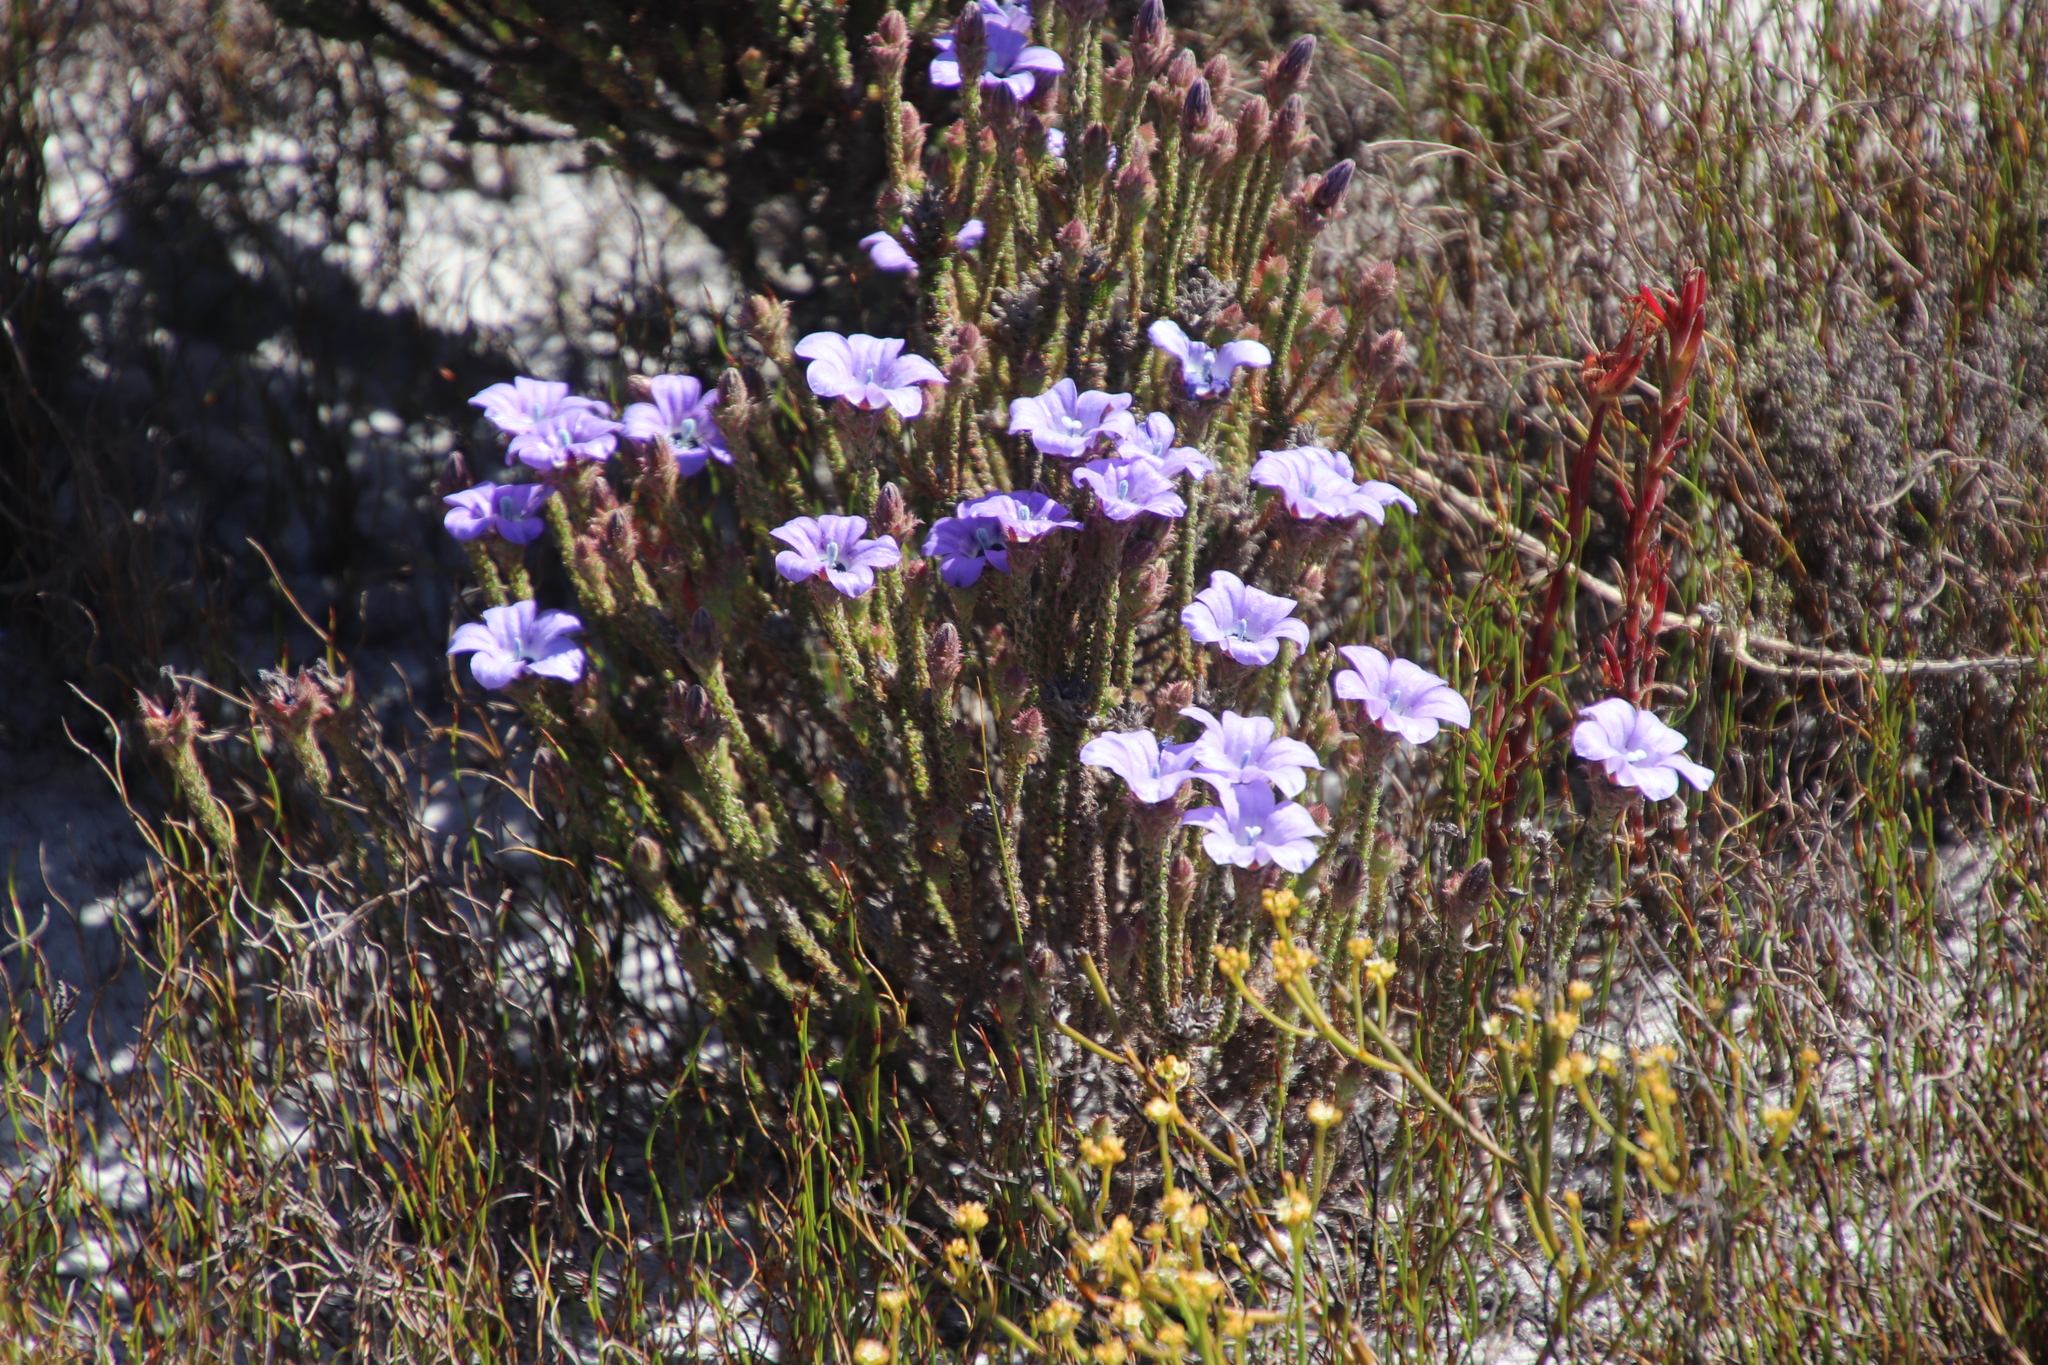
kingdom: Plantae
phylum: Tracheophyta
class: Magnoliopsida
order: Asterales
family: Campanulaceae
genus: Roella
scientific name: Roella triflora
